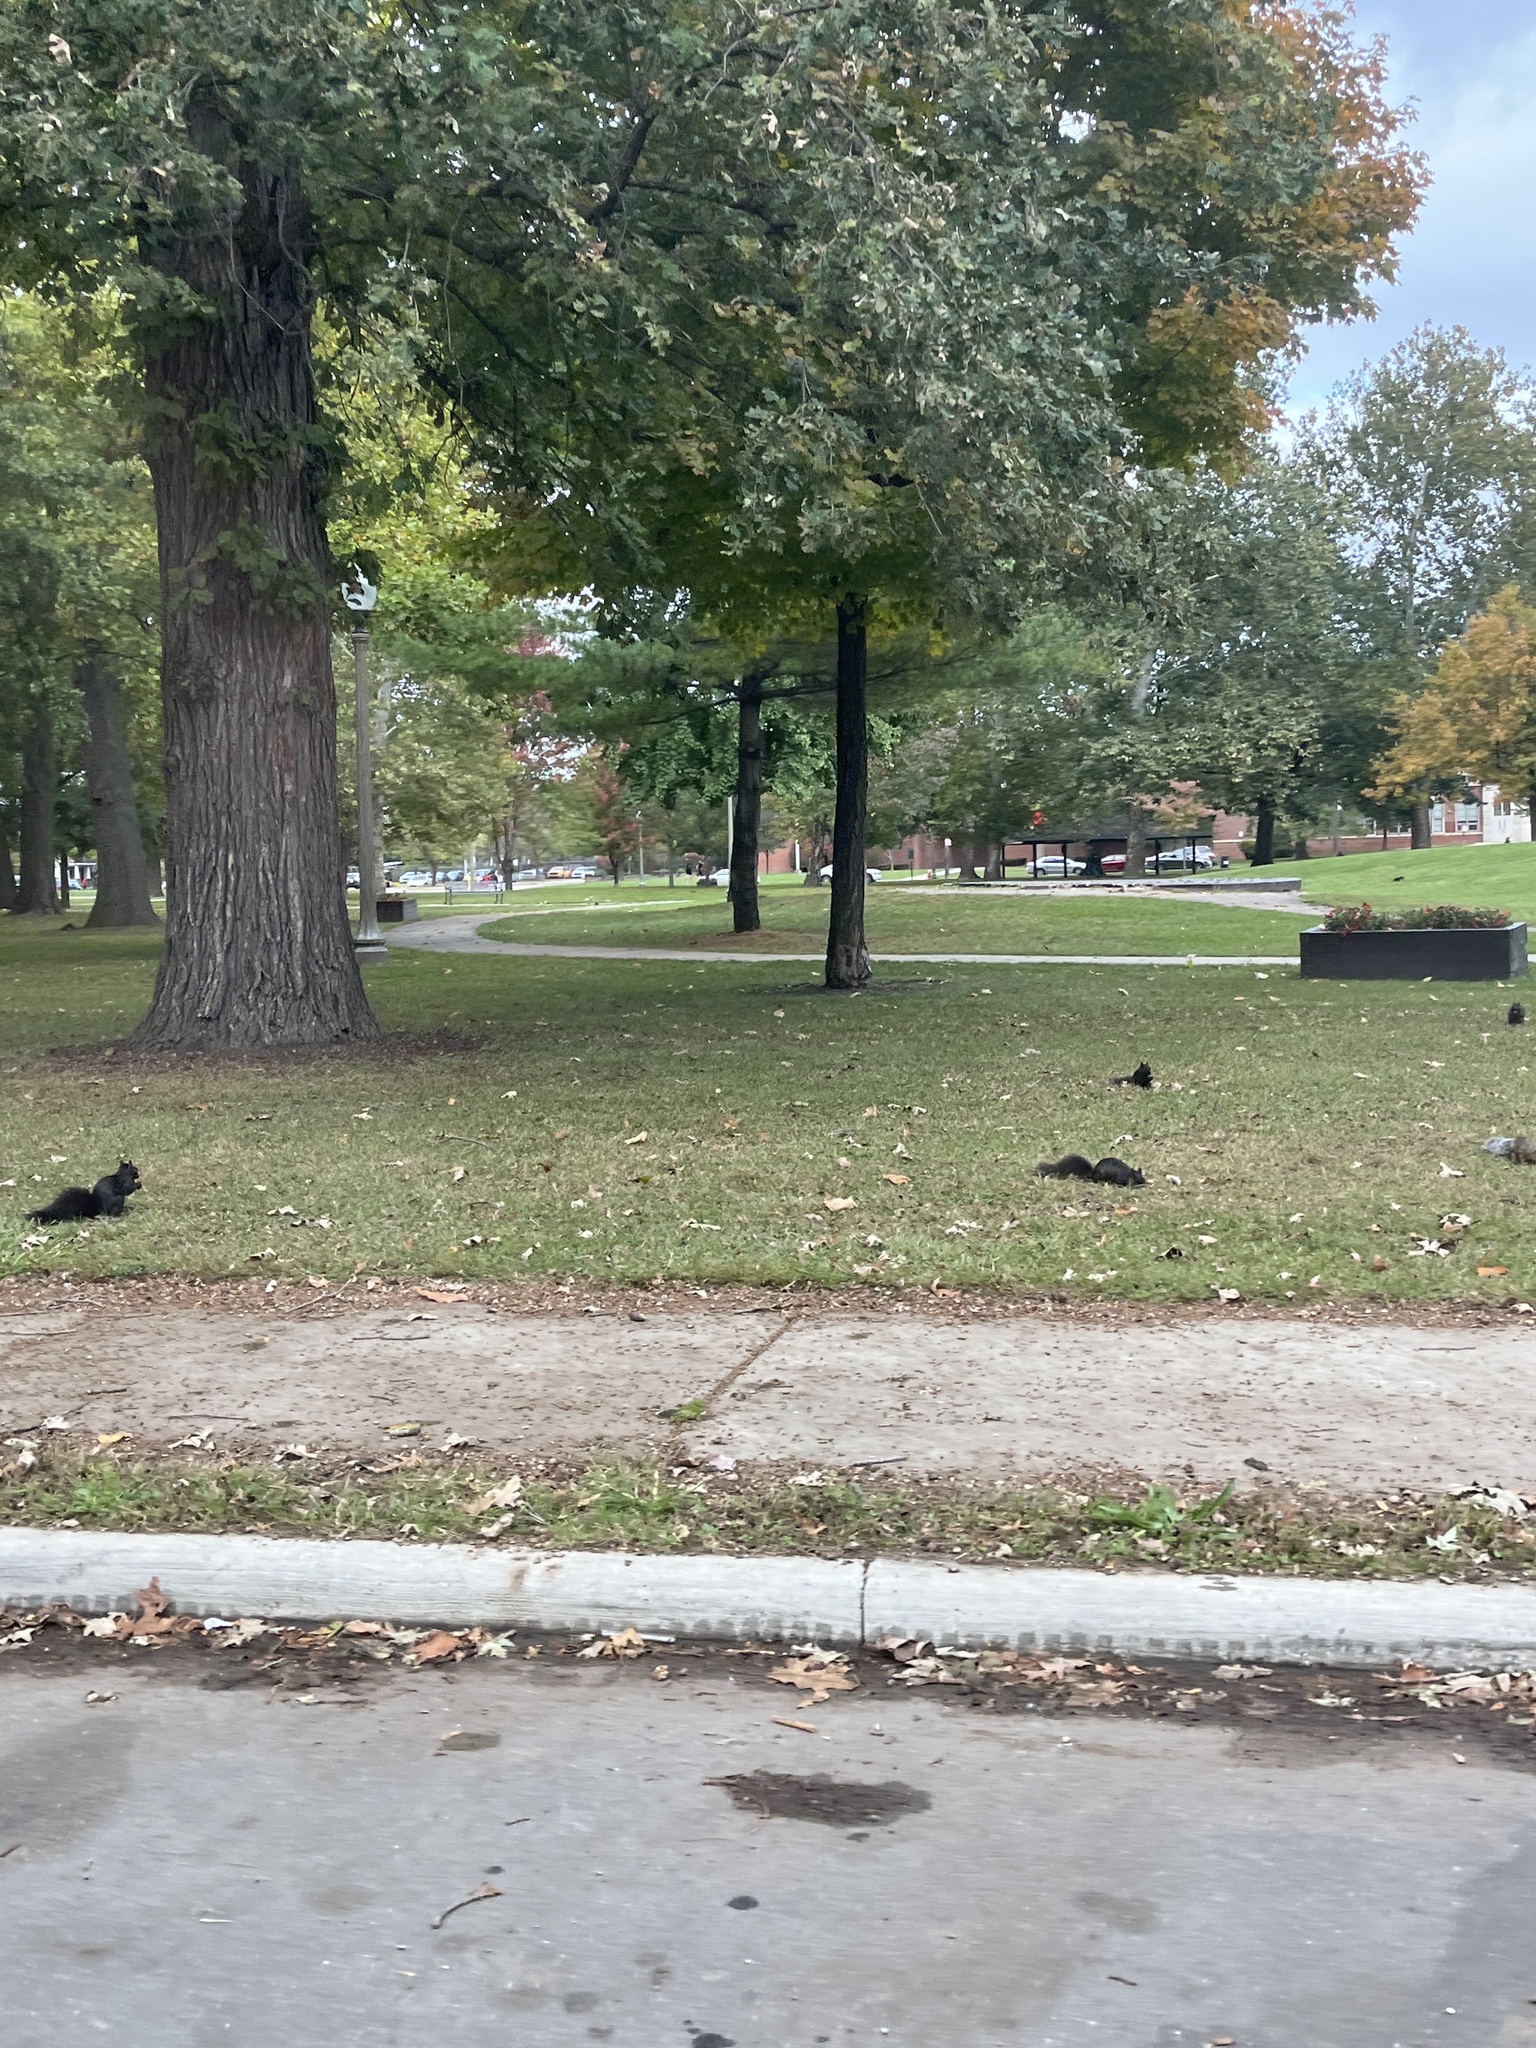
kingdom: Animalia
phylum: Chordata
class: Mammalia
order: Rodentia
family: Sciuridae
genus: Sciurus
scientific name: Sciurus carolinensis
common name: Eastern gray squirrel
